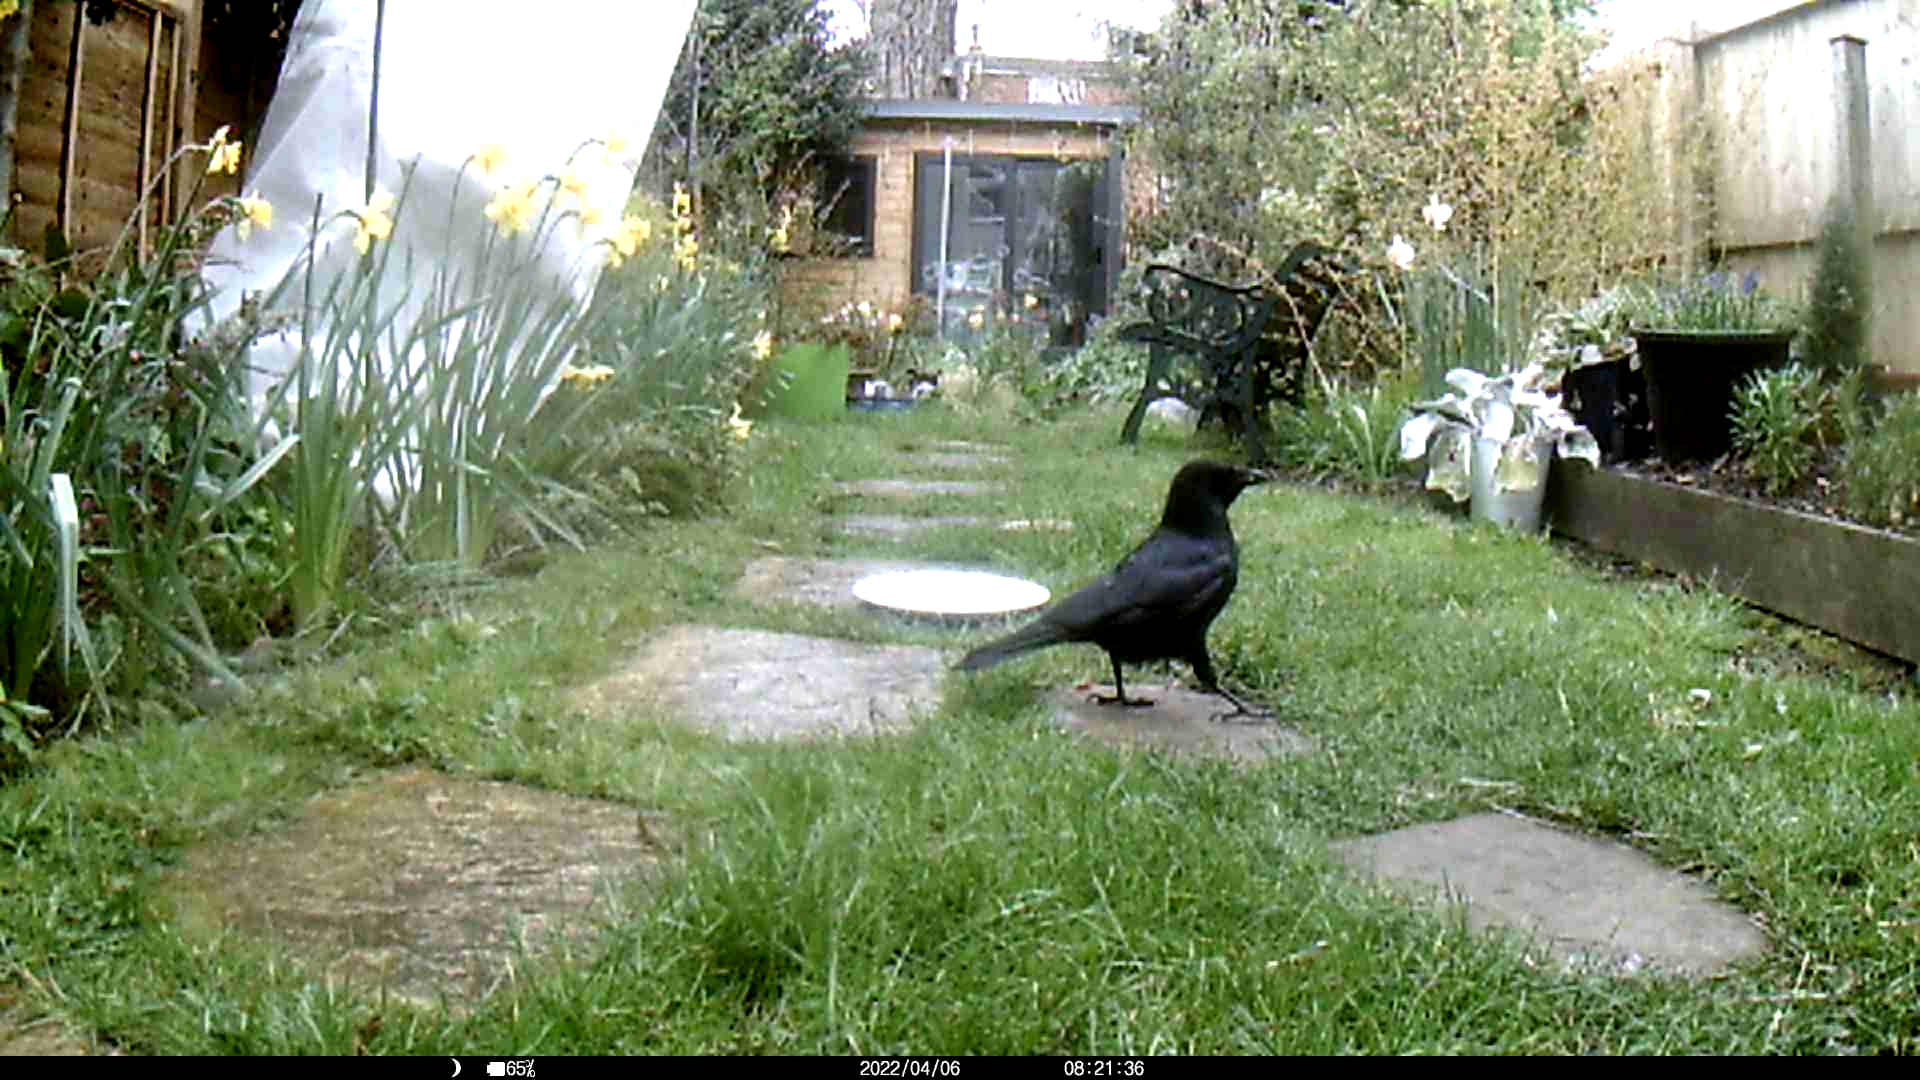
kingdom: Animalia
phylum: Chordata
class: Aves
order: Passeriformes
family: Corvidae
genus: Corvus
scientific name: Corvus corone
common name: Carrion crow
